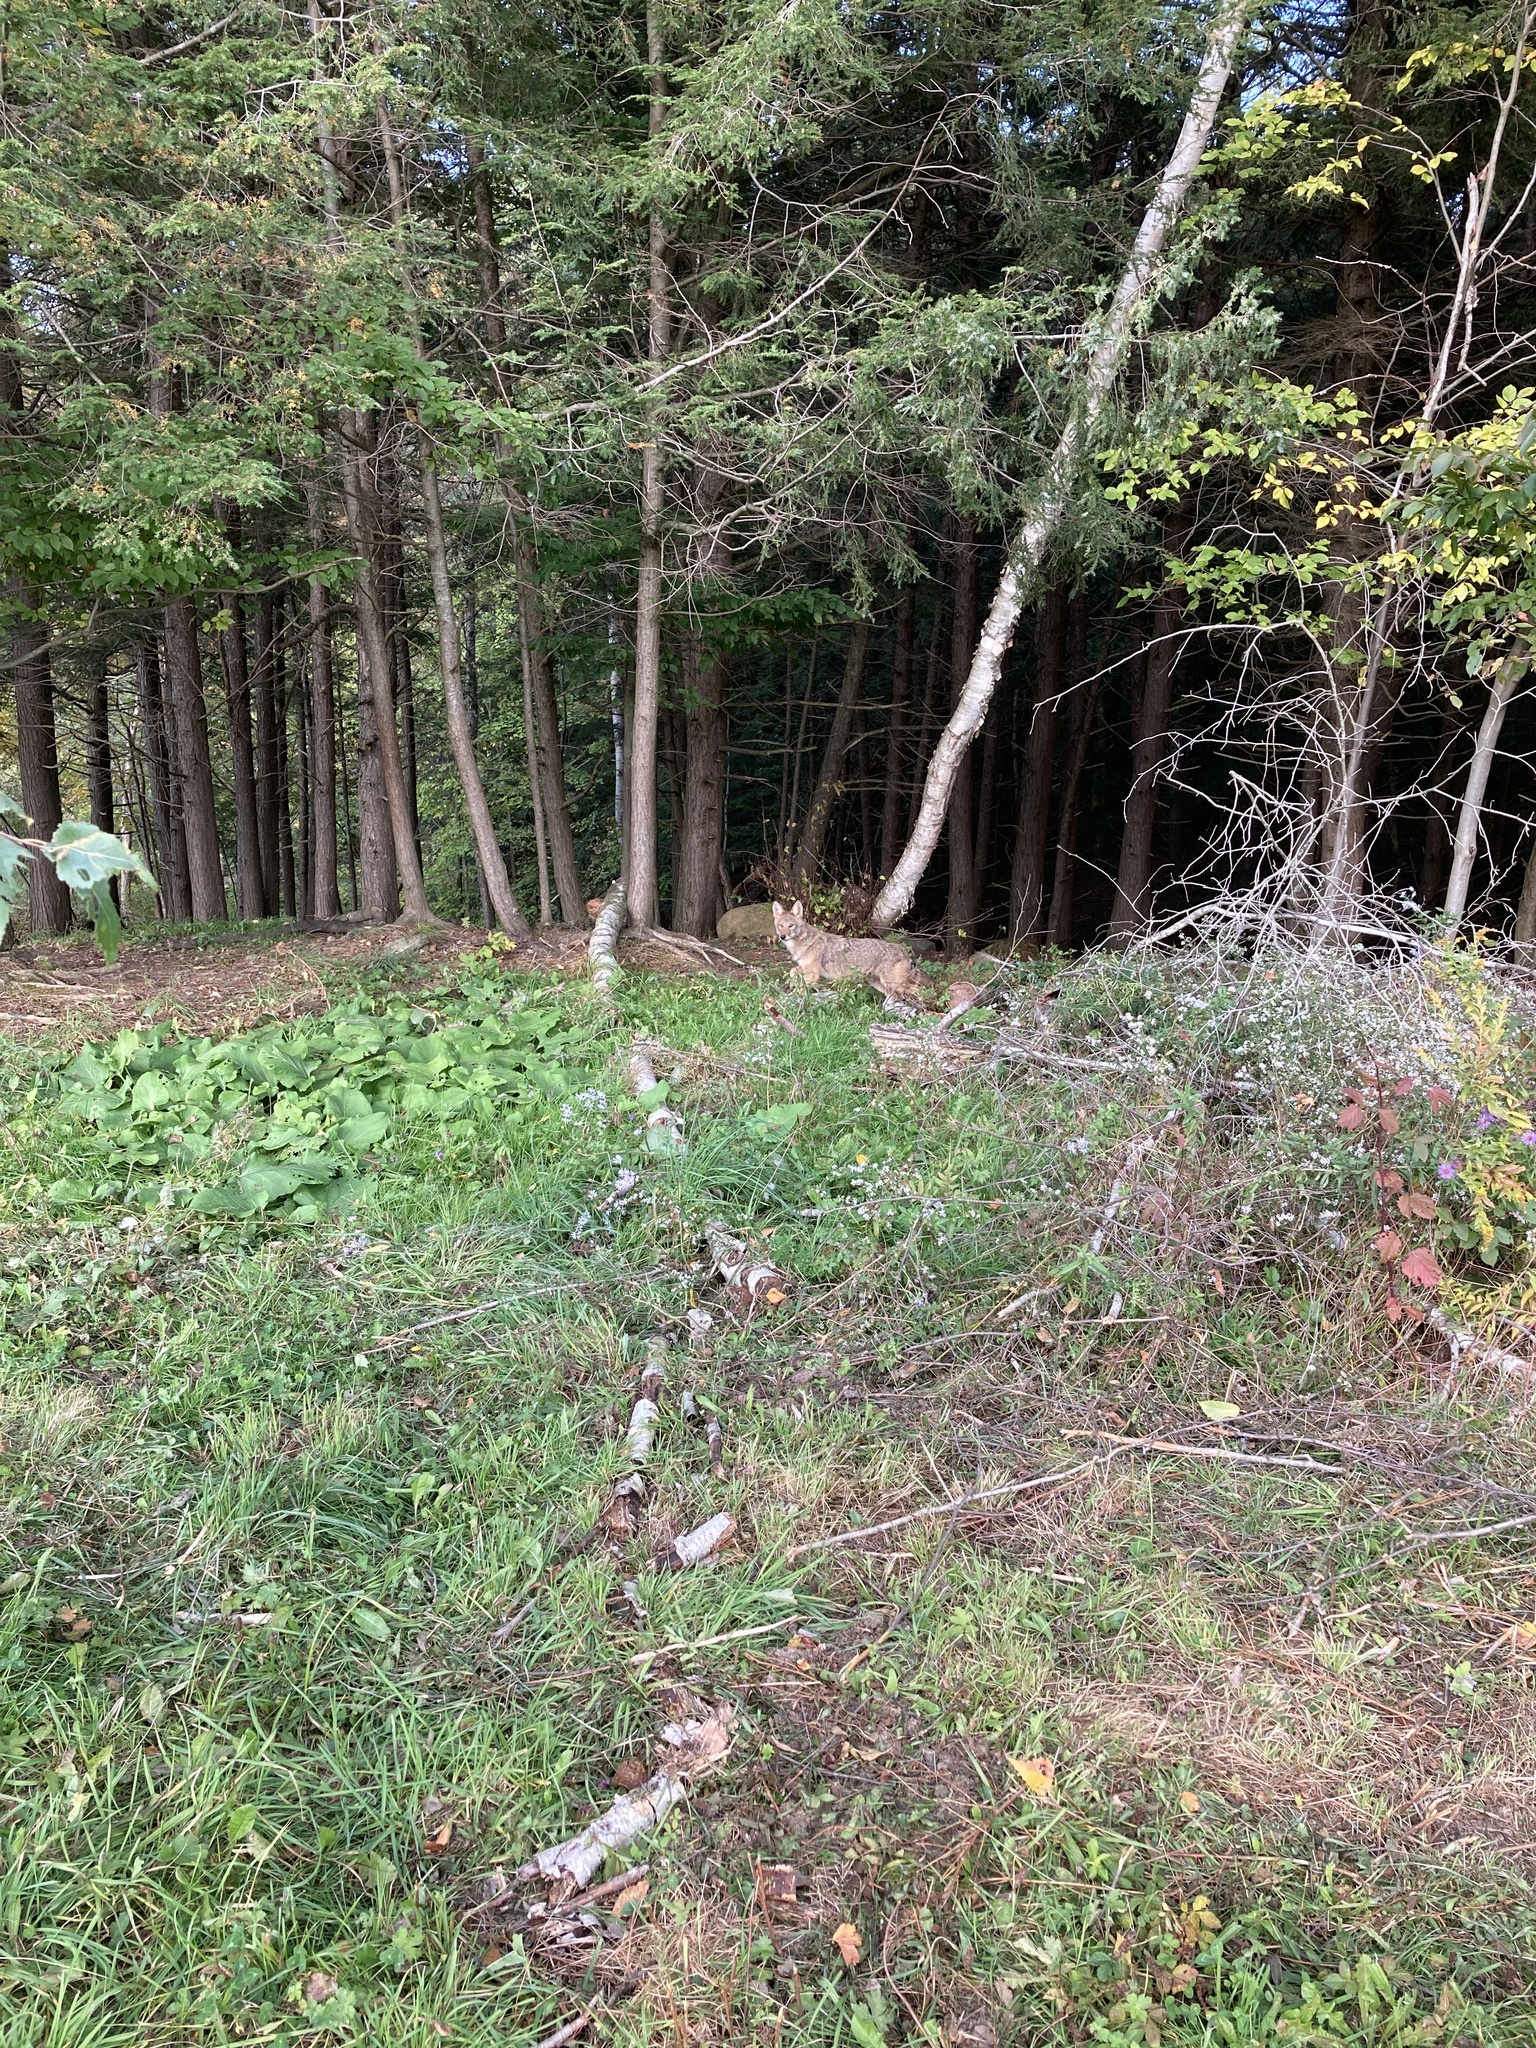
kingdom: Animalia
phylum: Chordata
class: Mammalia
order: Carnivora
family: Canidae
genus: Canis
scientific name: Canis latrans
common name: Coyote
